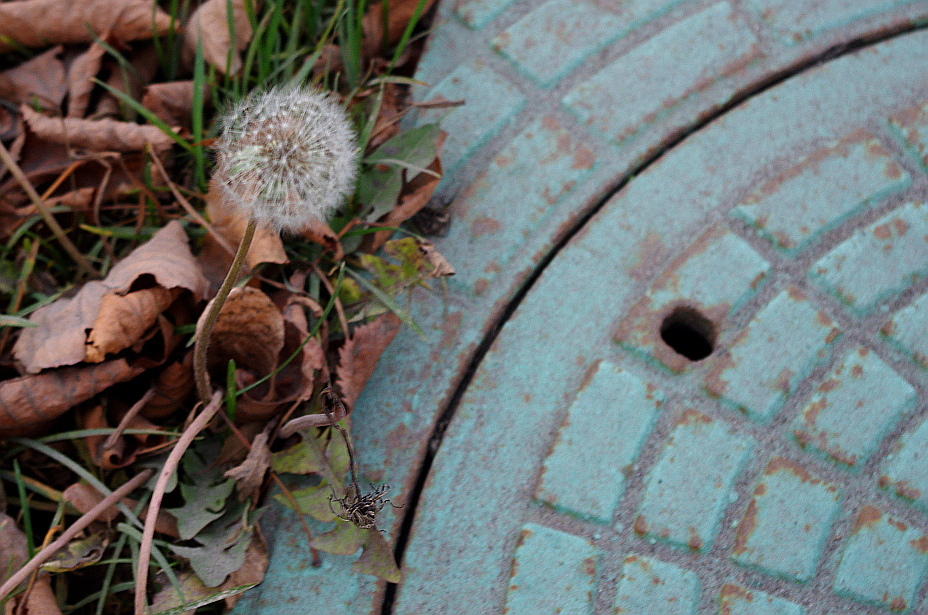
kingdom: Plantae
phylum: Tracheophyta
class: Magnoliopsida
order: Asterales
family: Asteraceae
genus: Taraxacum
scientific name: Taraxacum officinale
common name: Common dandelion
